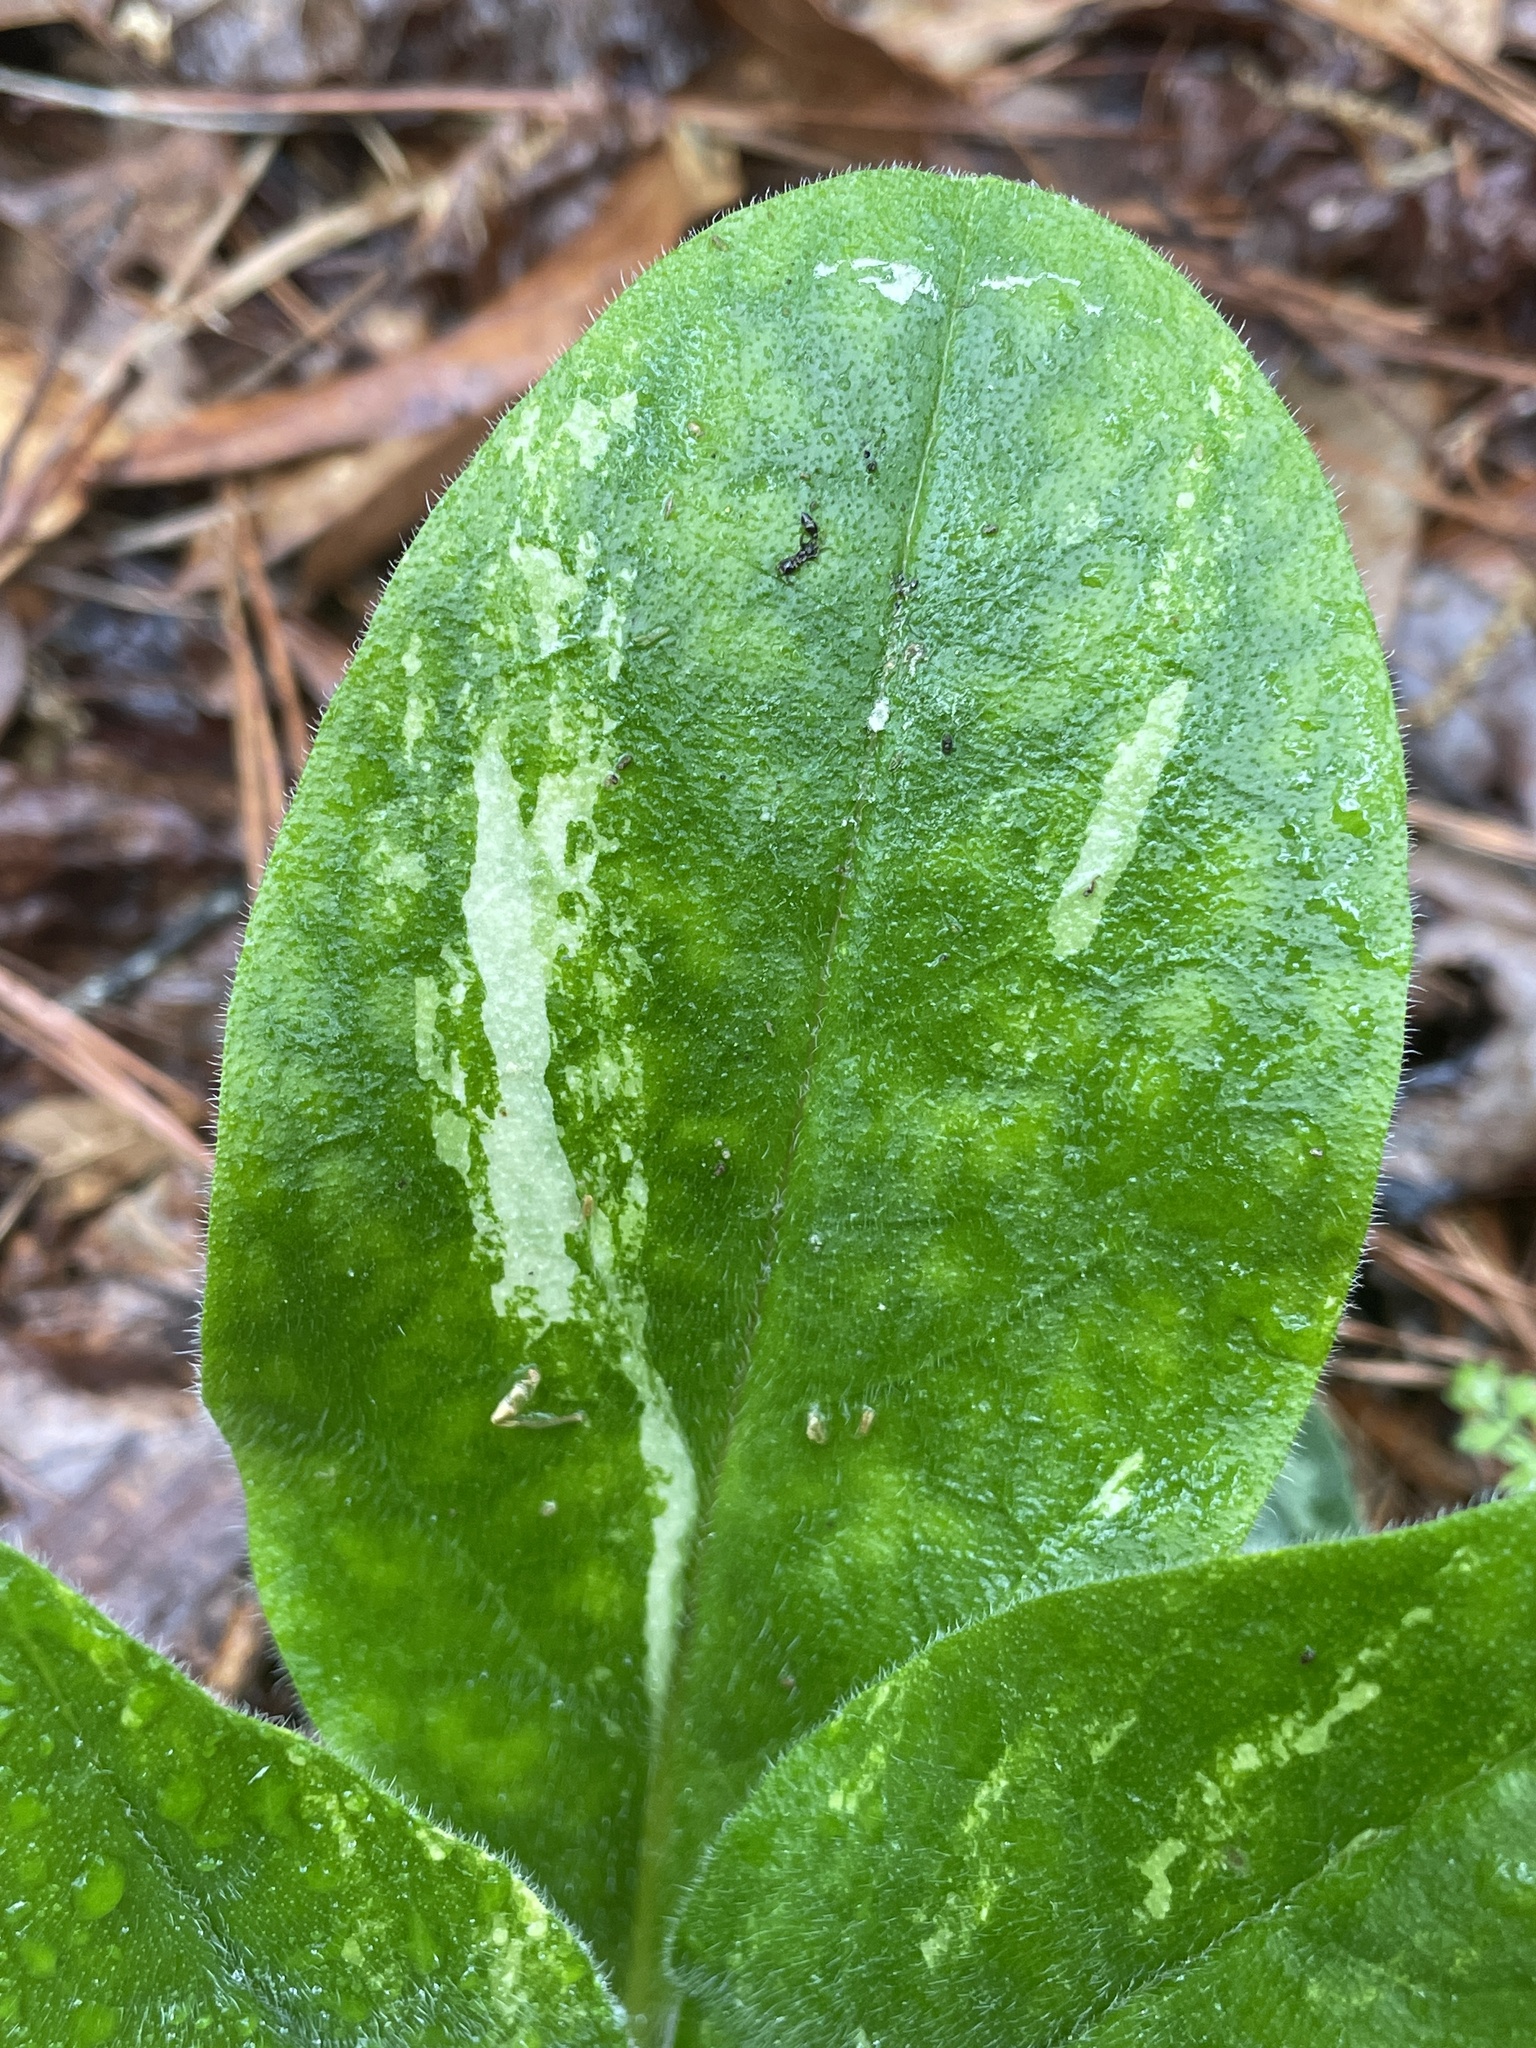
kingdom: Plantae
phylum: Tracheophyta
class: Magnoliopsida
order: Boraginales
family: Boraginaceae
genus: Andersonglossum
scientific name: Andersonglossum virginianum
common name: Wild comfrey
